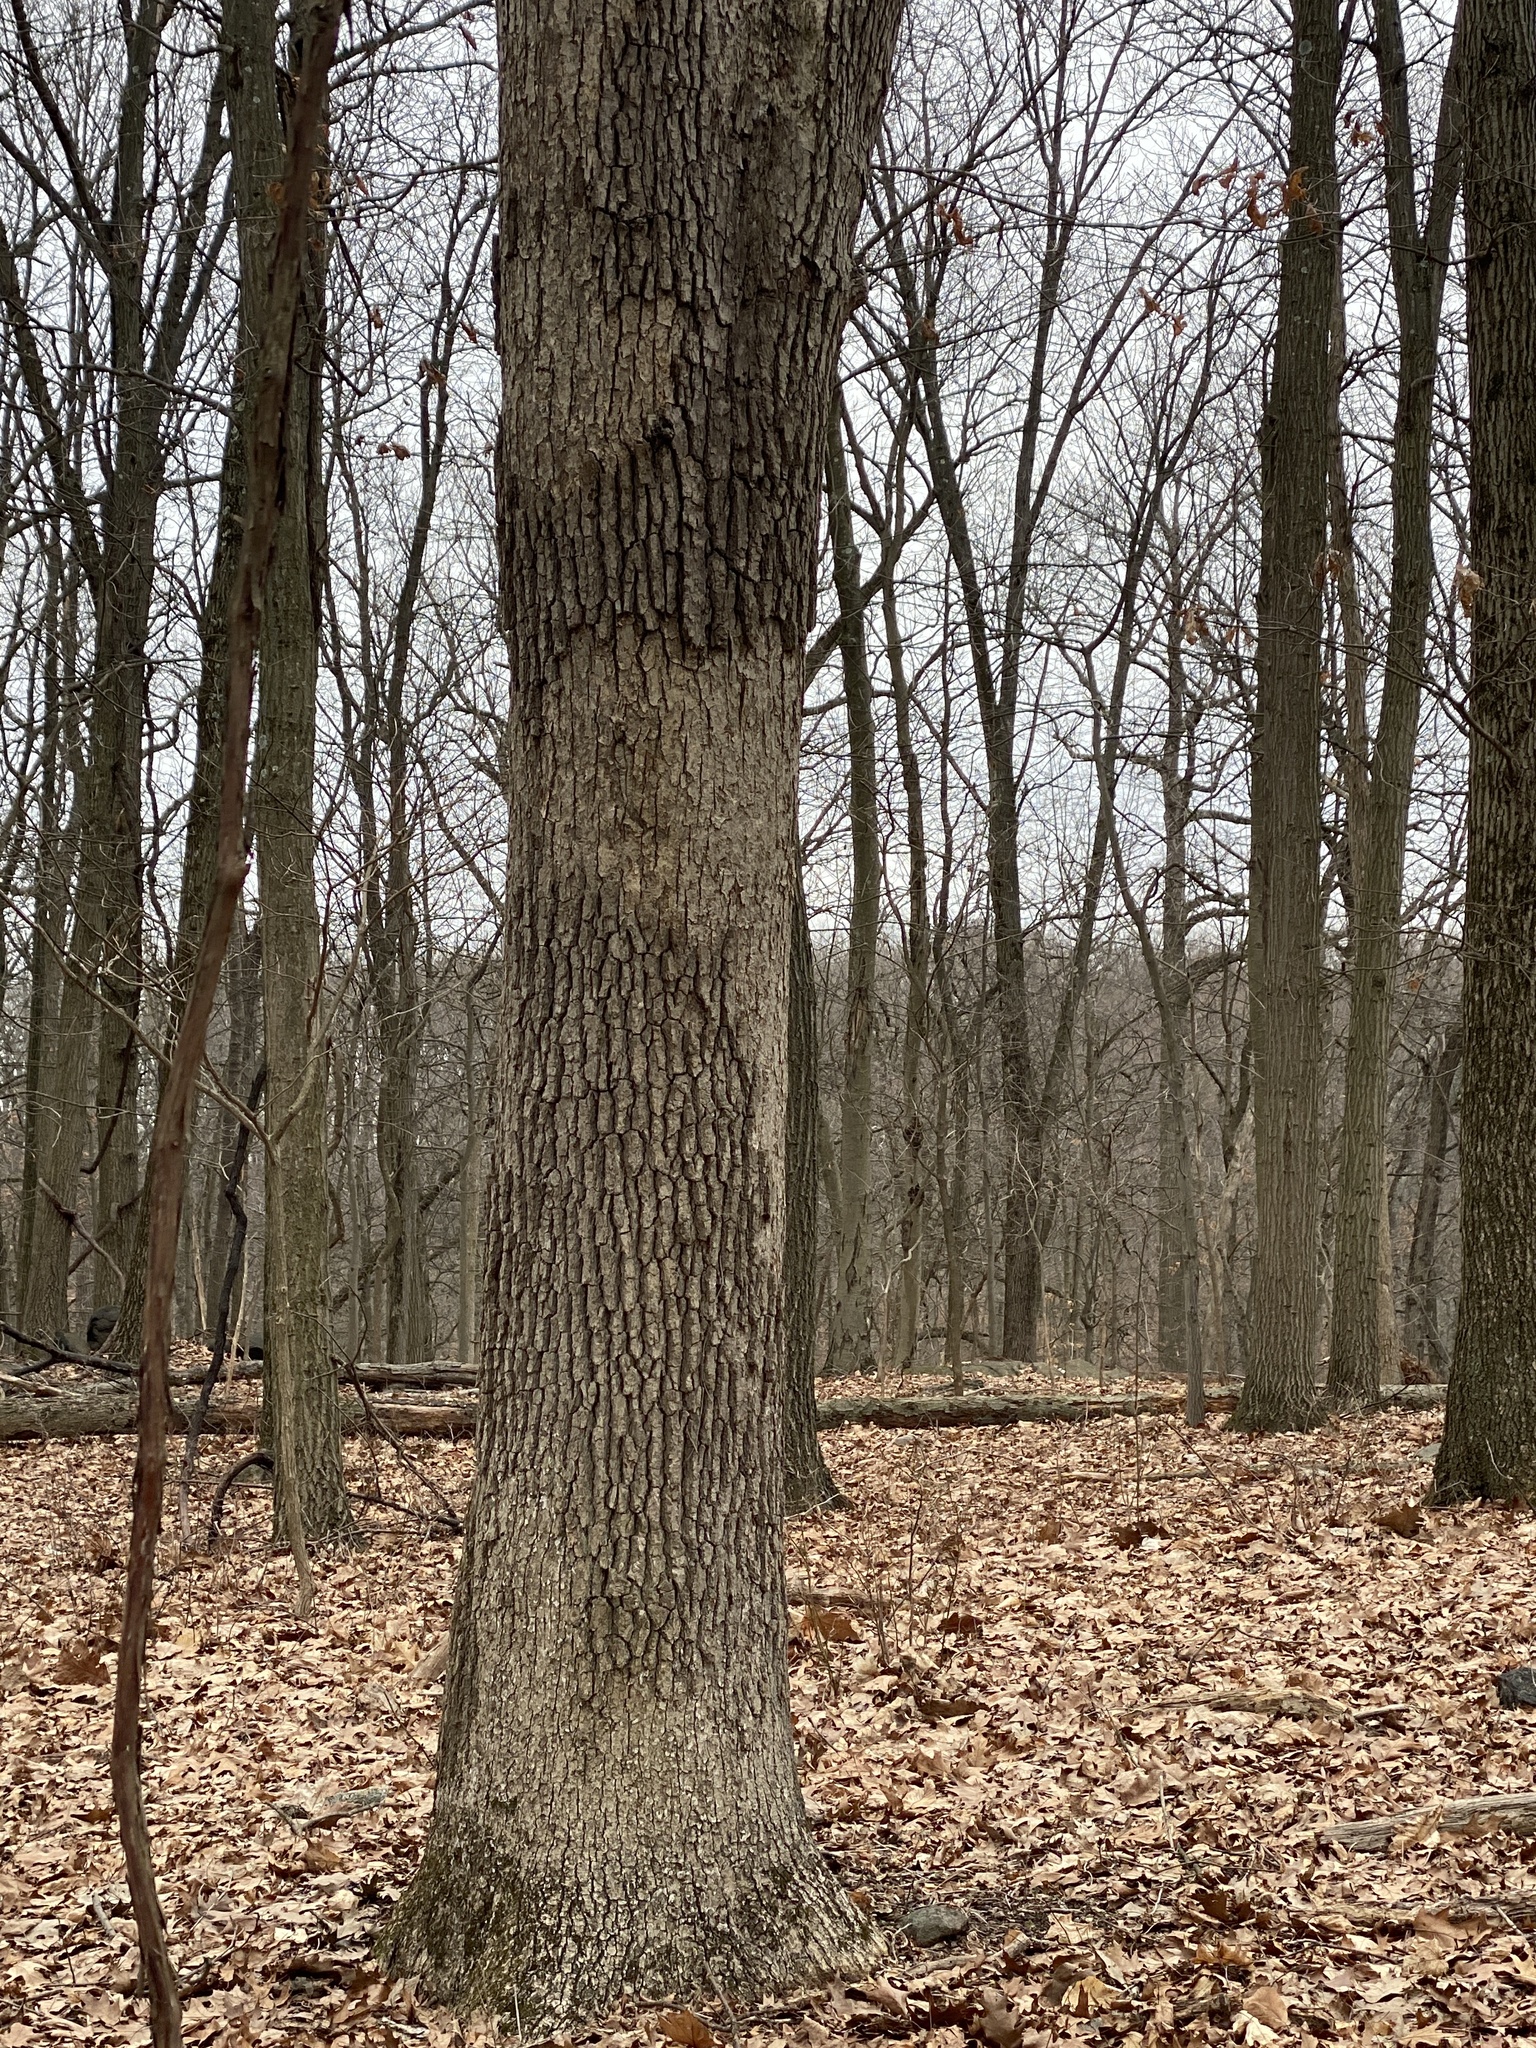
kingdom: Fungi
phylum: Basidiomycota
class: Agaricomycetes
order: Russulales
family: Stereaceae
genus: Acanthophysium
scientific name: Acanthophysium oakesii
